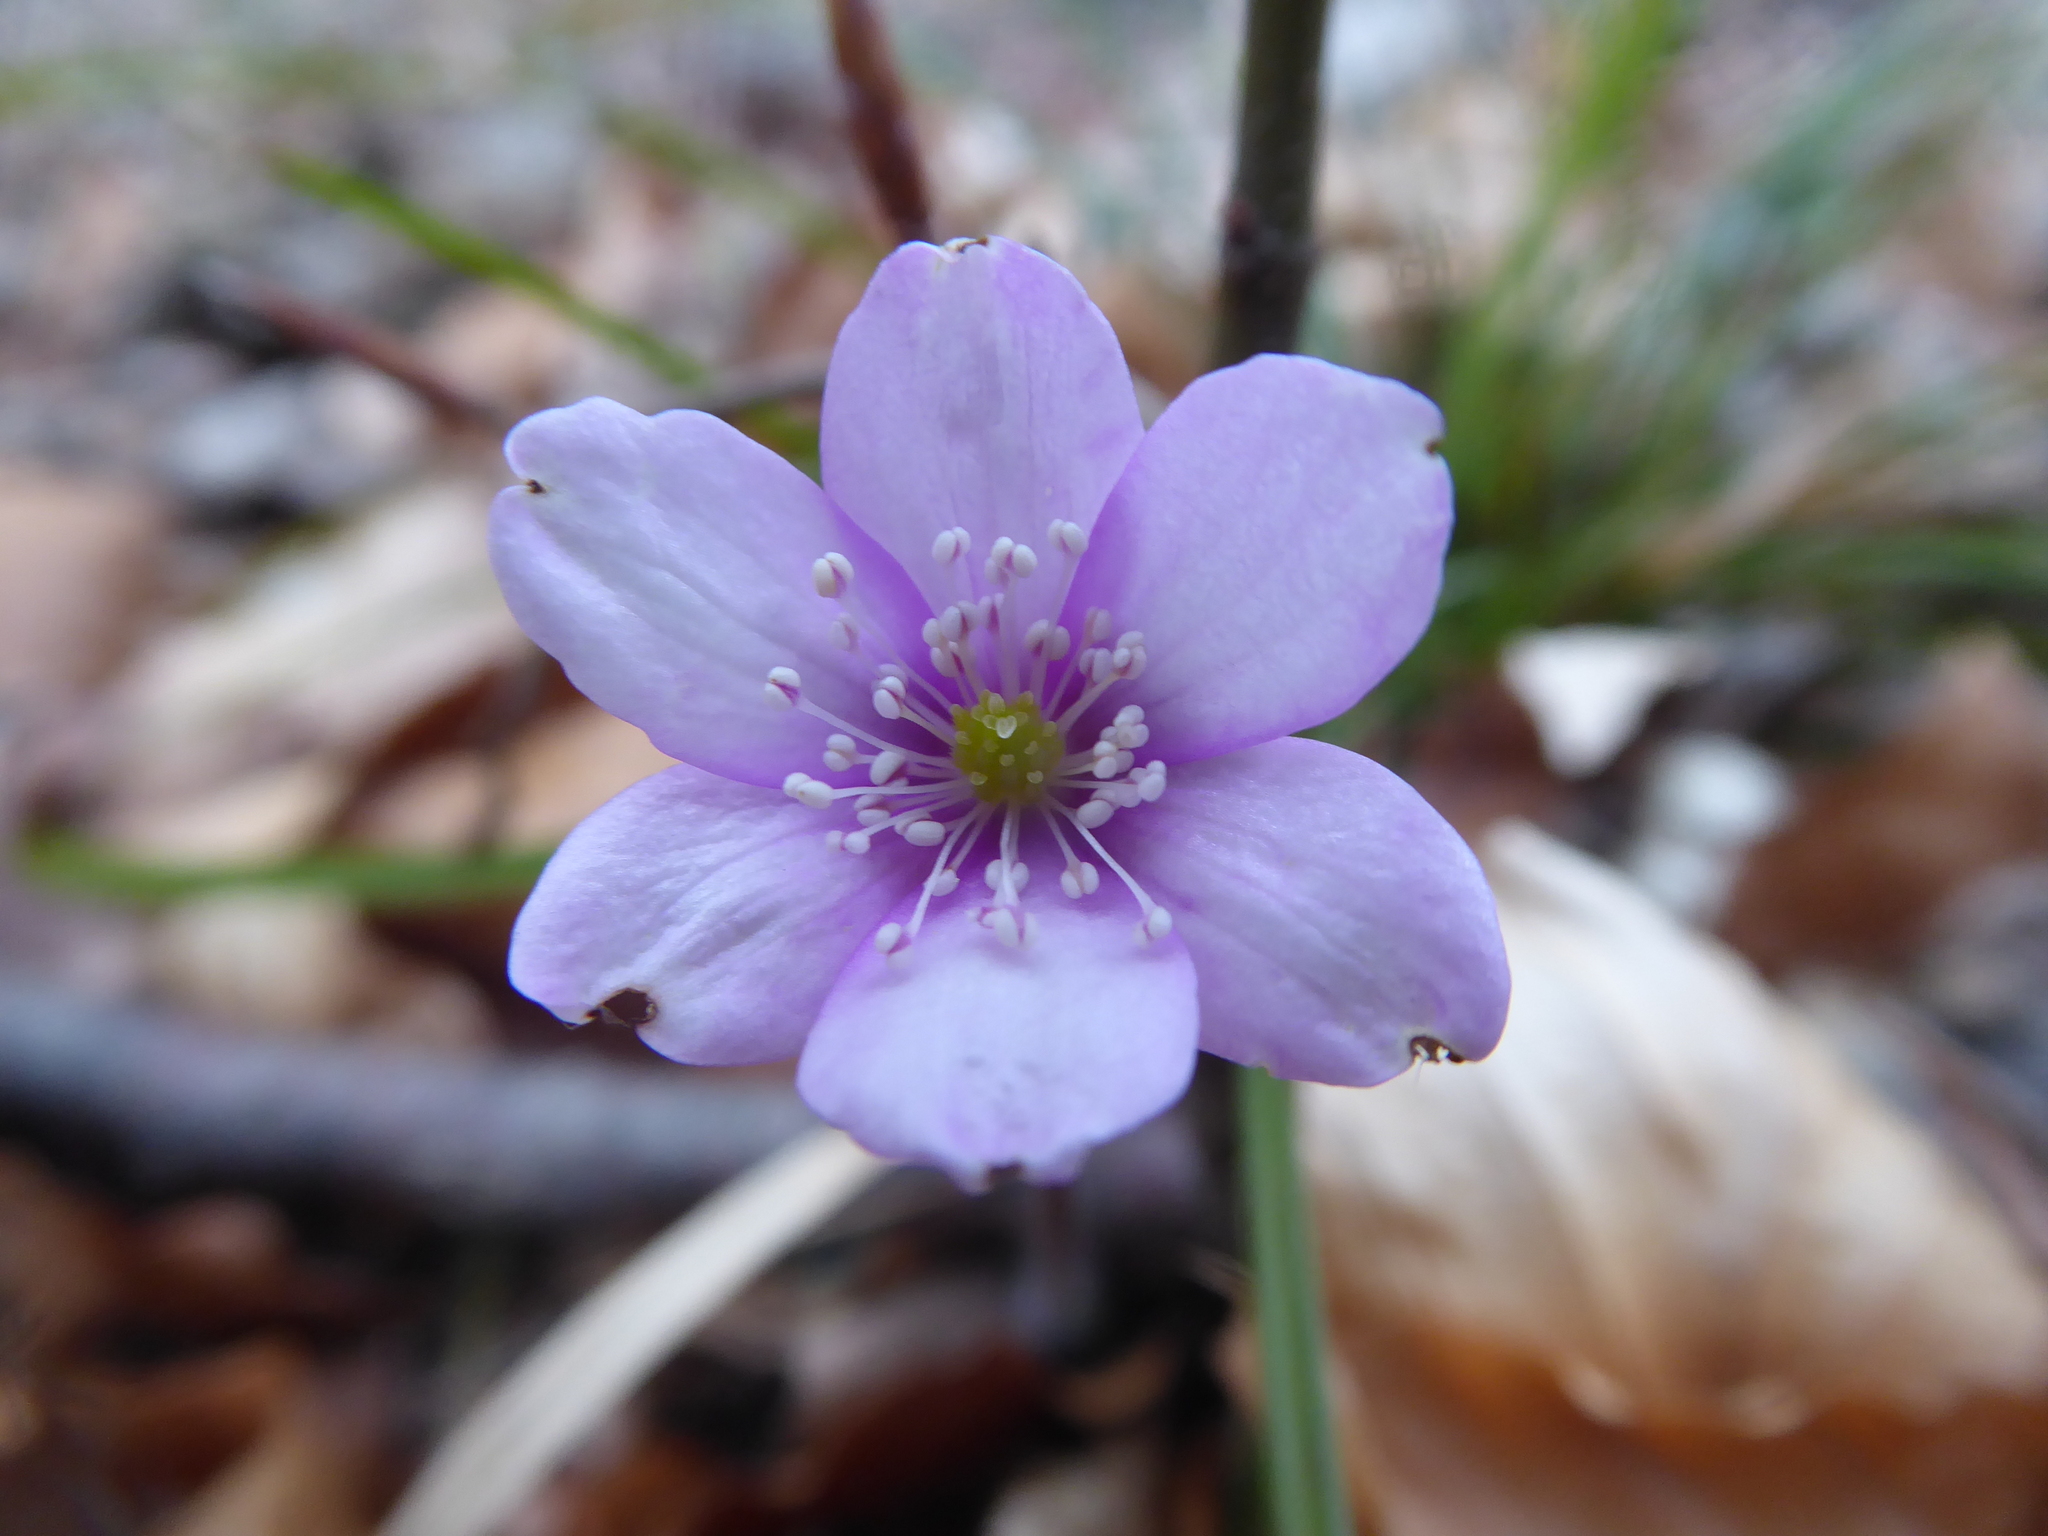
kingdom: Plantae
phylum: Tracheophyta
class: Magnoliopsida
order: Ranunculales
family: Ranunculaceae
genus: Hepatica
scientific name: Hepatica nobilis
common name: Liverleaf
